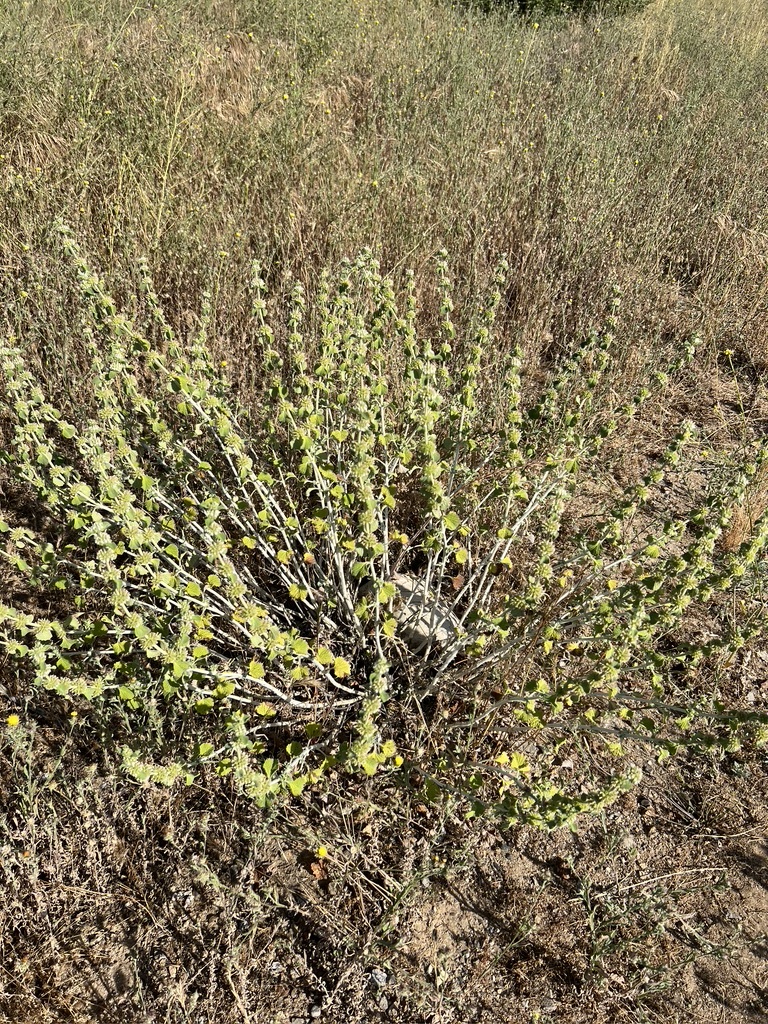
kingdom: Plantae
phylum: Tracheophyta
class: Magnoliopsida
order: Lamiales
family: Lamiaceae
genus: Marrubium
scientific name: Marrubium vulgare
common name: Horehound
